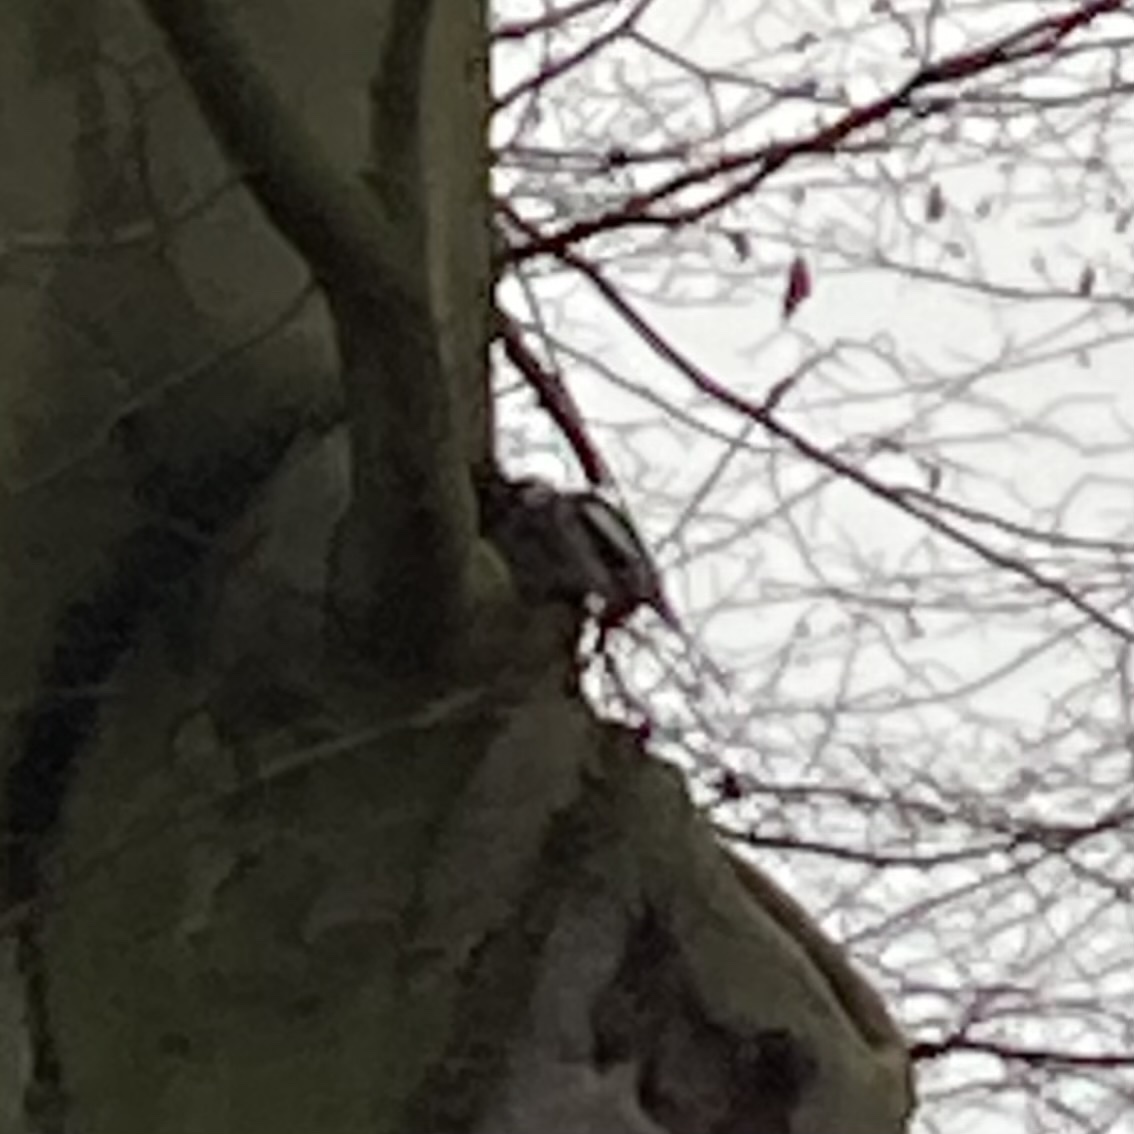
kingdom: Animalia
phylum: Chordata
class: Aves
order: Piciformes
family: Picidae
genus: Dendrocopos
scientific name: Dendrocopos major
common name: Great spotted woodpecker
